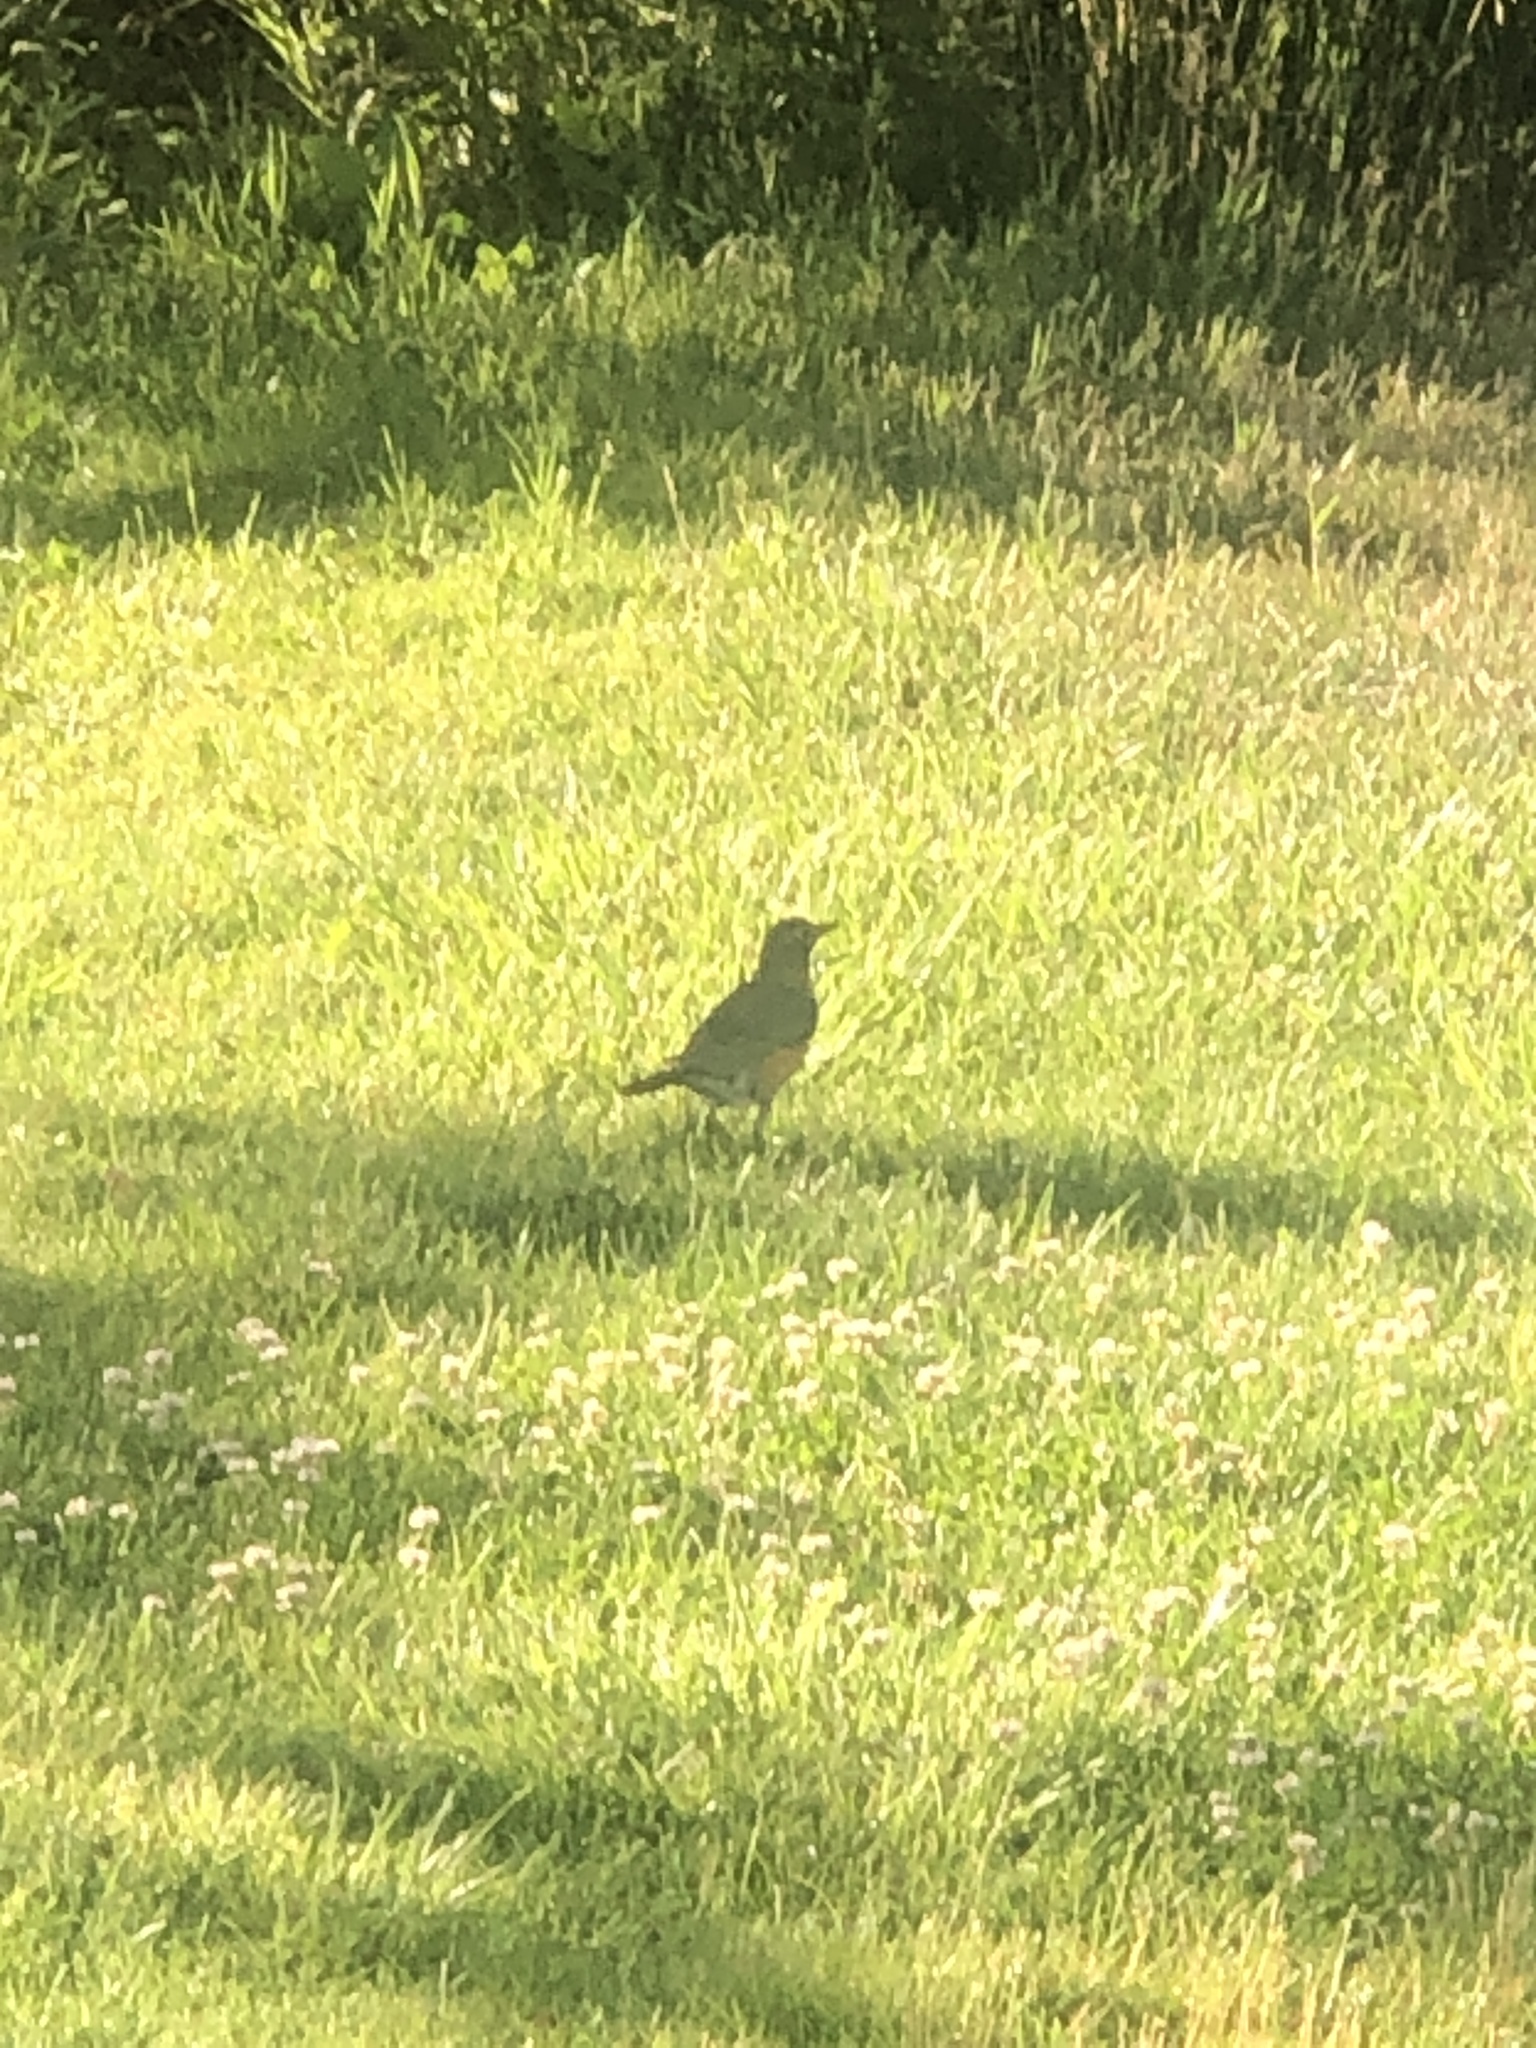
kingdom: Animalia
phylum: Chordata
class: Aves
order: Passeriformes
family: Turdidae
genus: Turdus
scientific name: Turdus migratorius
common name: American robin
